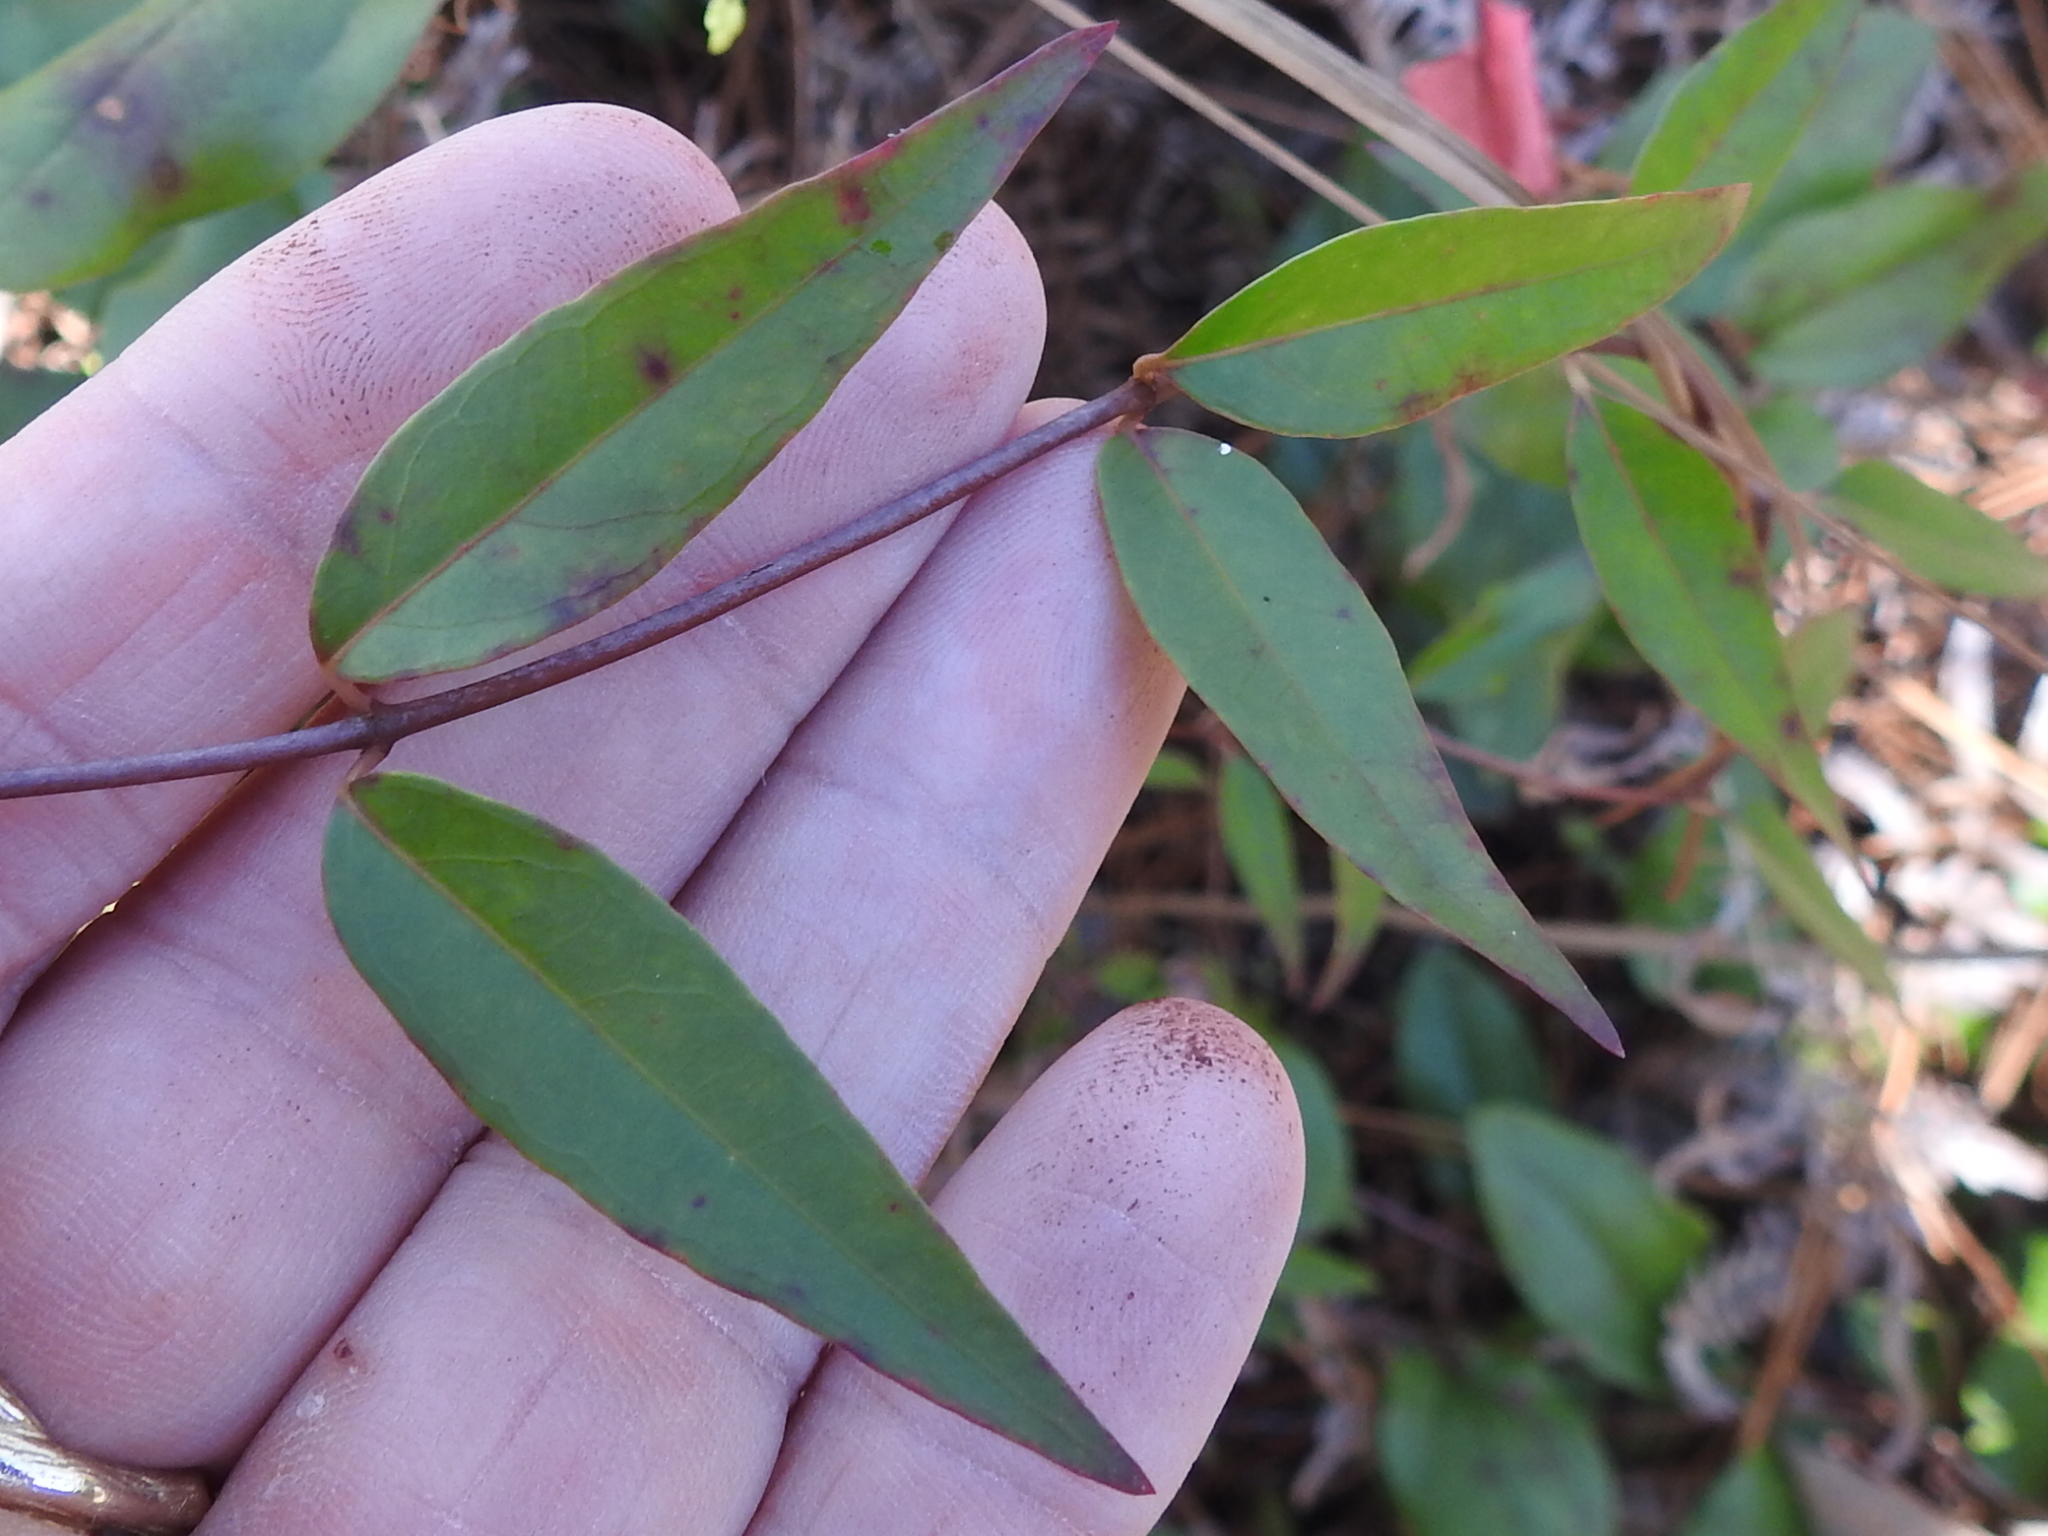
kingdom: Plantae
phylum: Tracheophyta
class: Magnoliopsida
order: Gentianales
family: Gelsemiaceae
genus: Gelsemium
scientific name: Gelsemium sempervirens
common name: Carolina-jasmine
